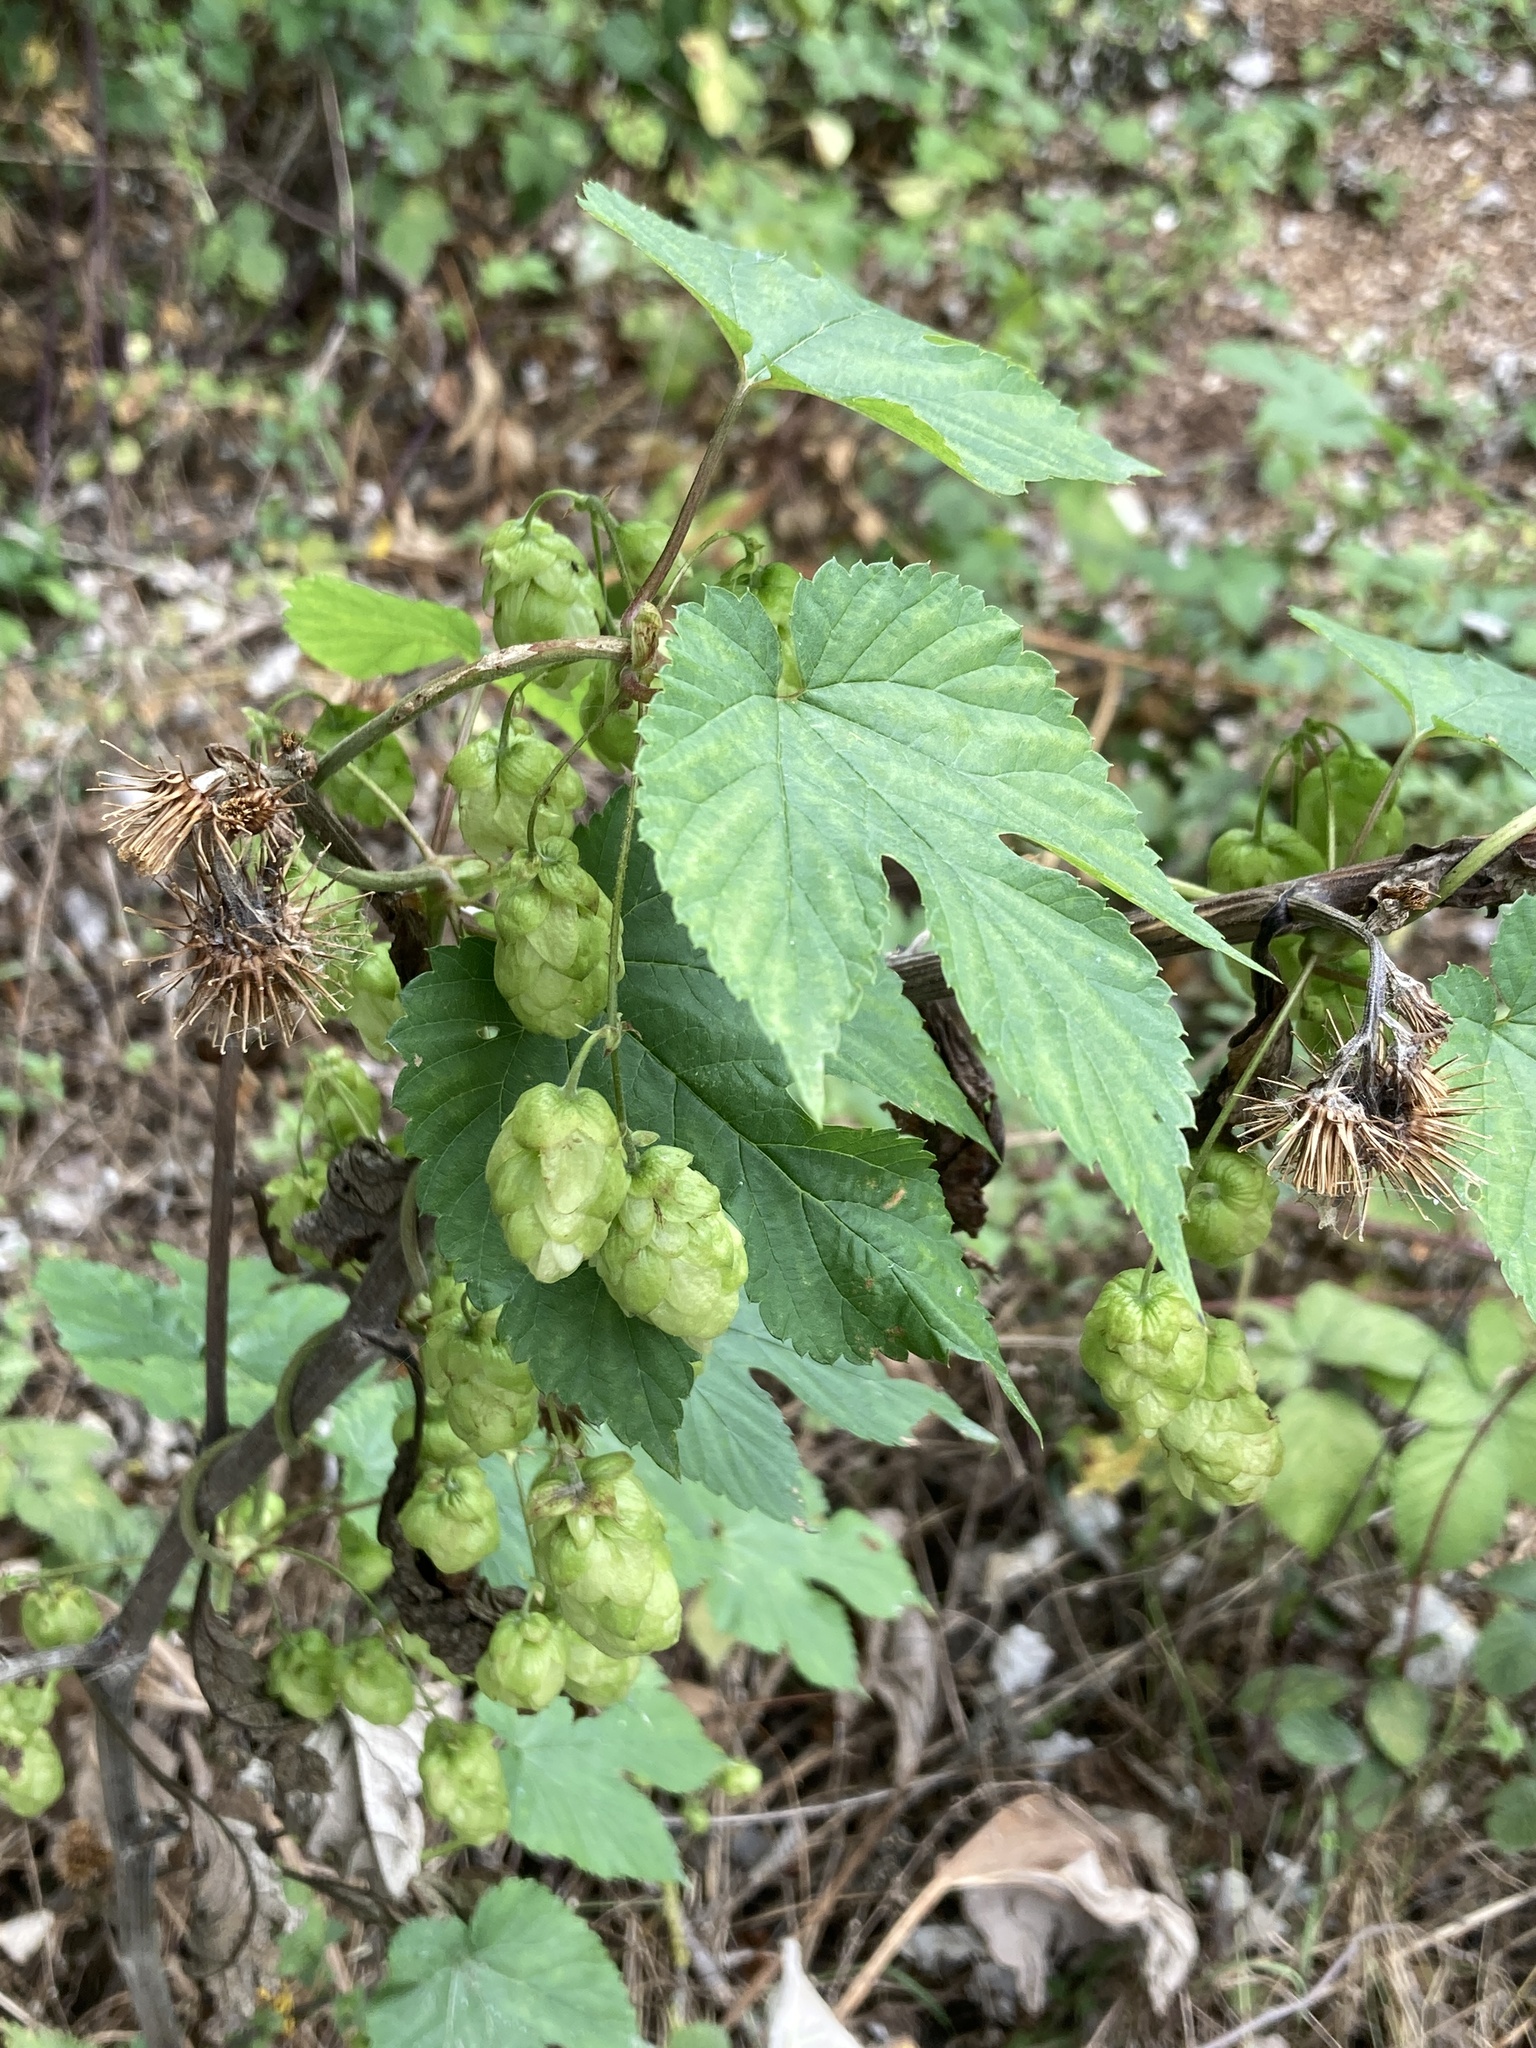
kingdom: Plantae
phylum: Tracheophyta
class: Magnoliopsida
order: Rosales
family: Cannabaceae
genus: Humulus
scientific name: Humulus lupulus
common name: Hop
